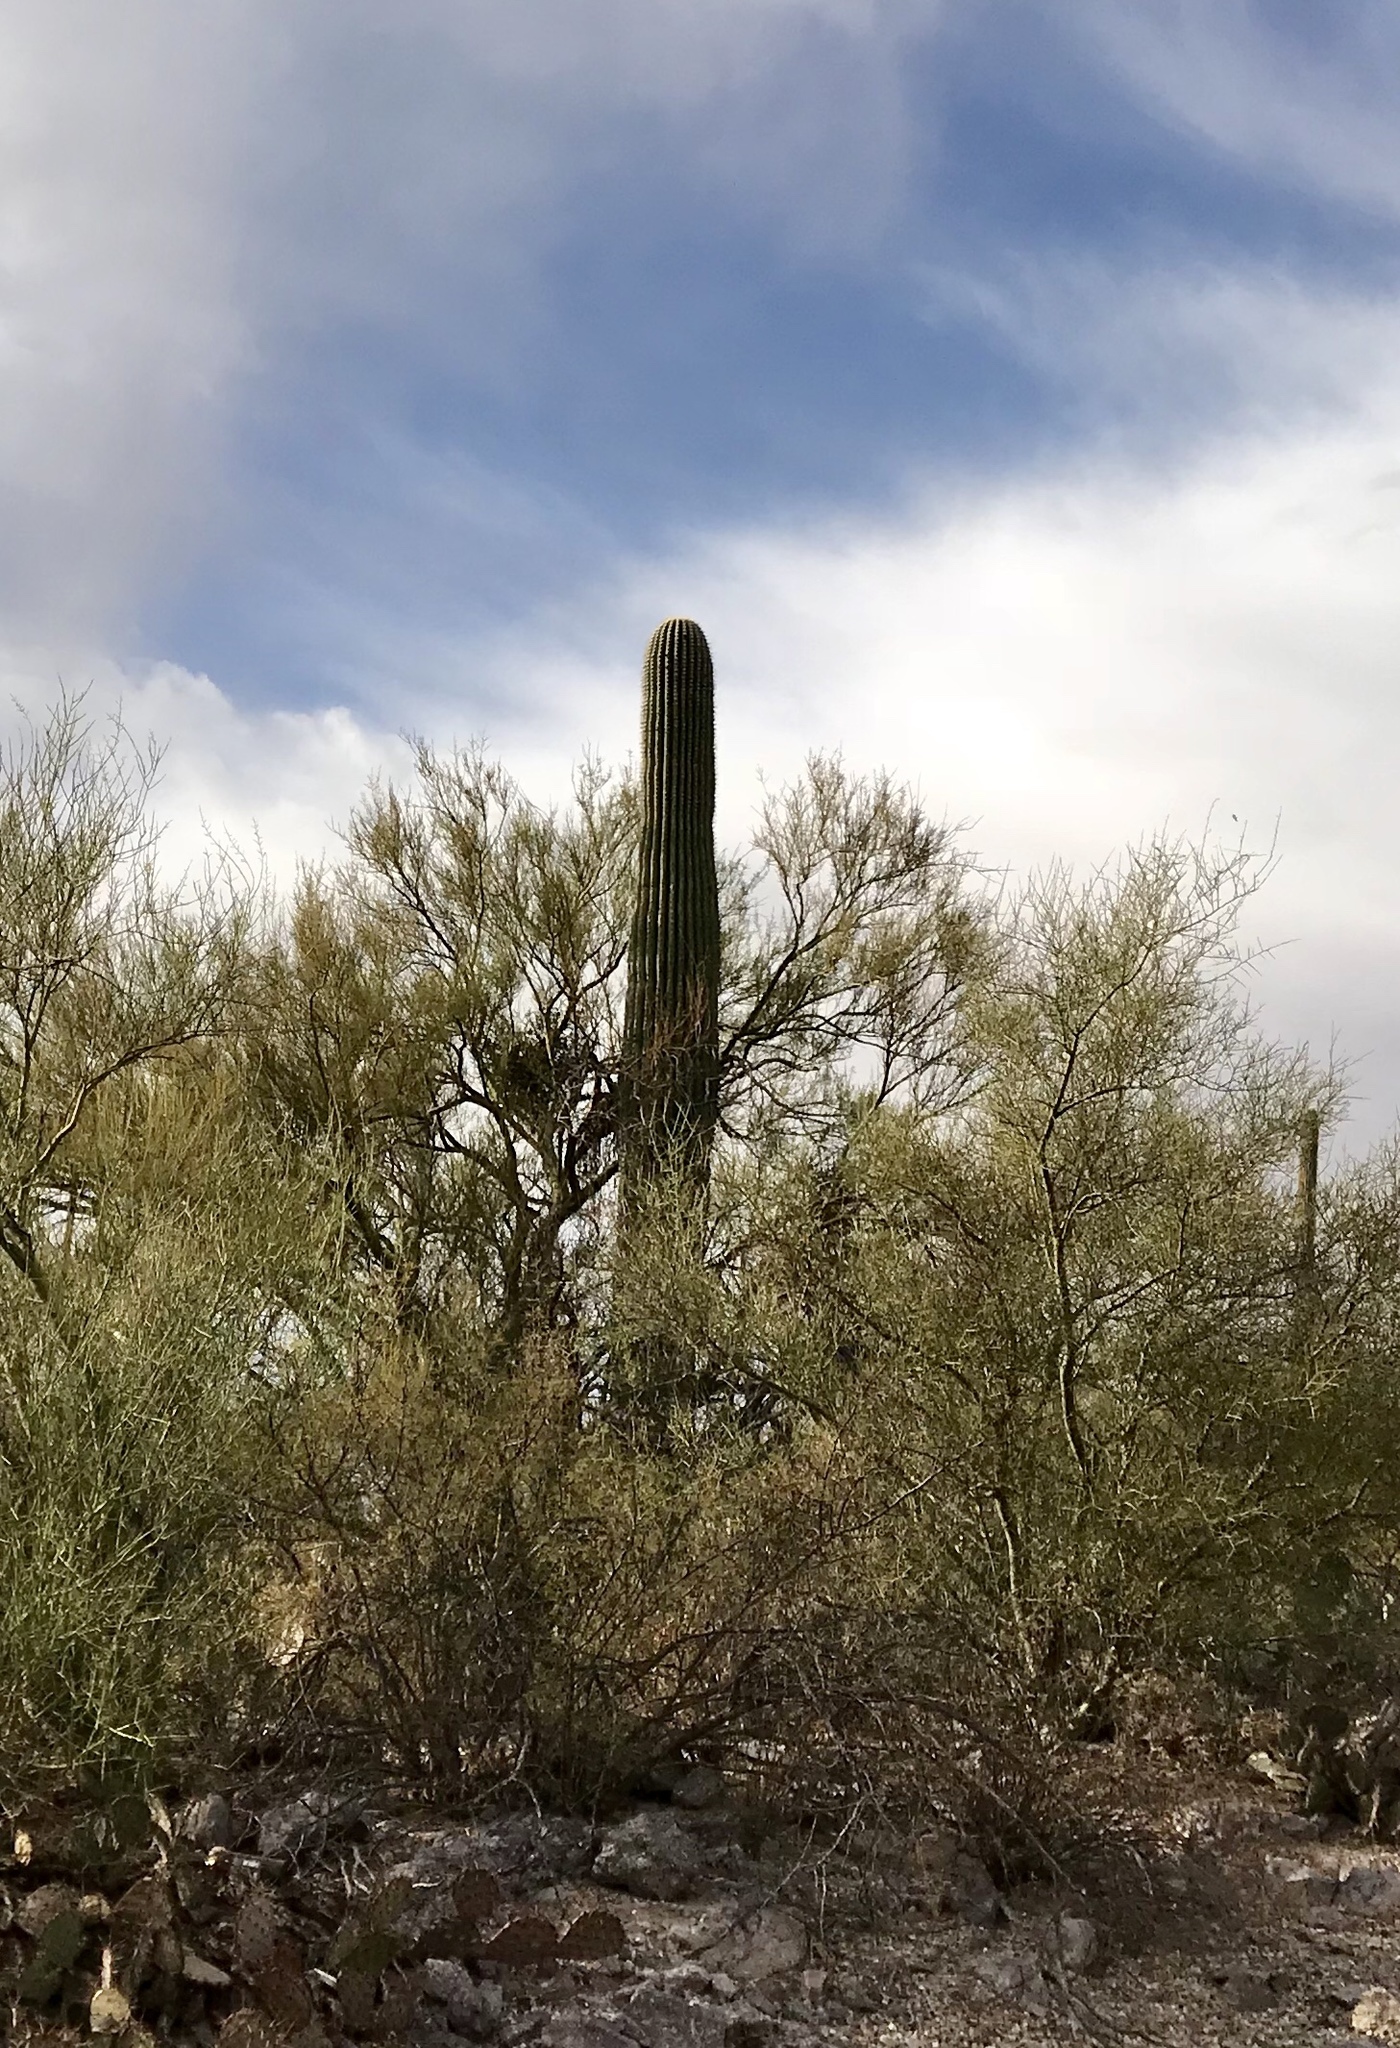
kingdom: Plantae
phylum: Tracheophyta
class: Magnoliopsida
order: Caryophyllales
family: Cactaceae
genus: Carnegiea
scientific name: Carnegiea gigantea
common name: Saguaro
